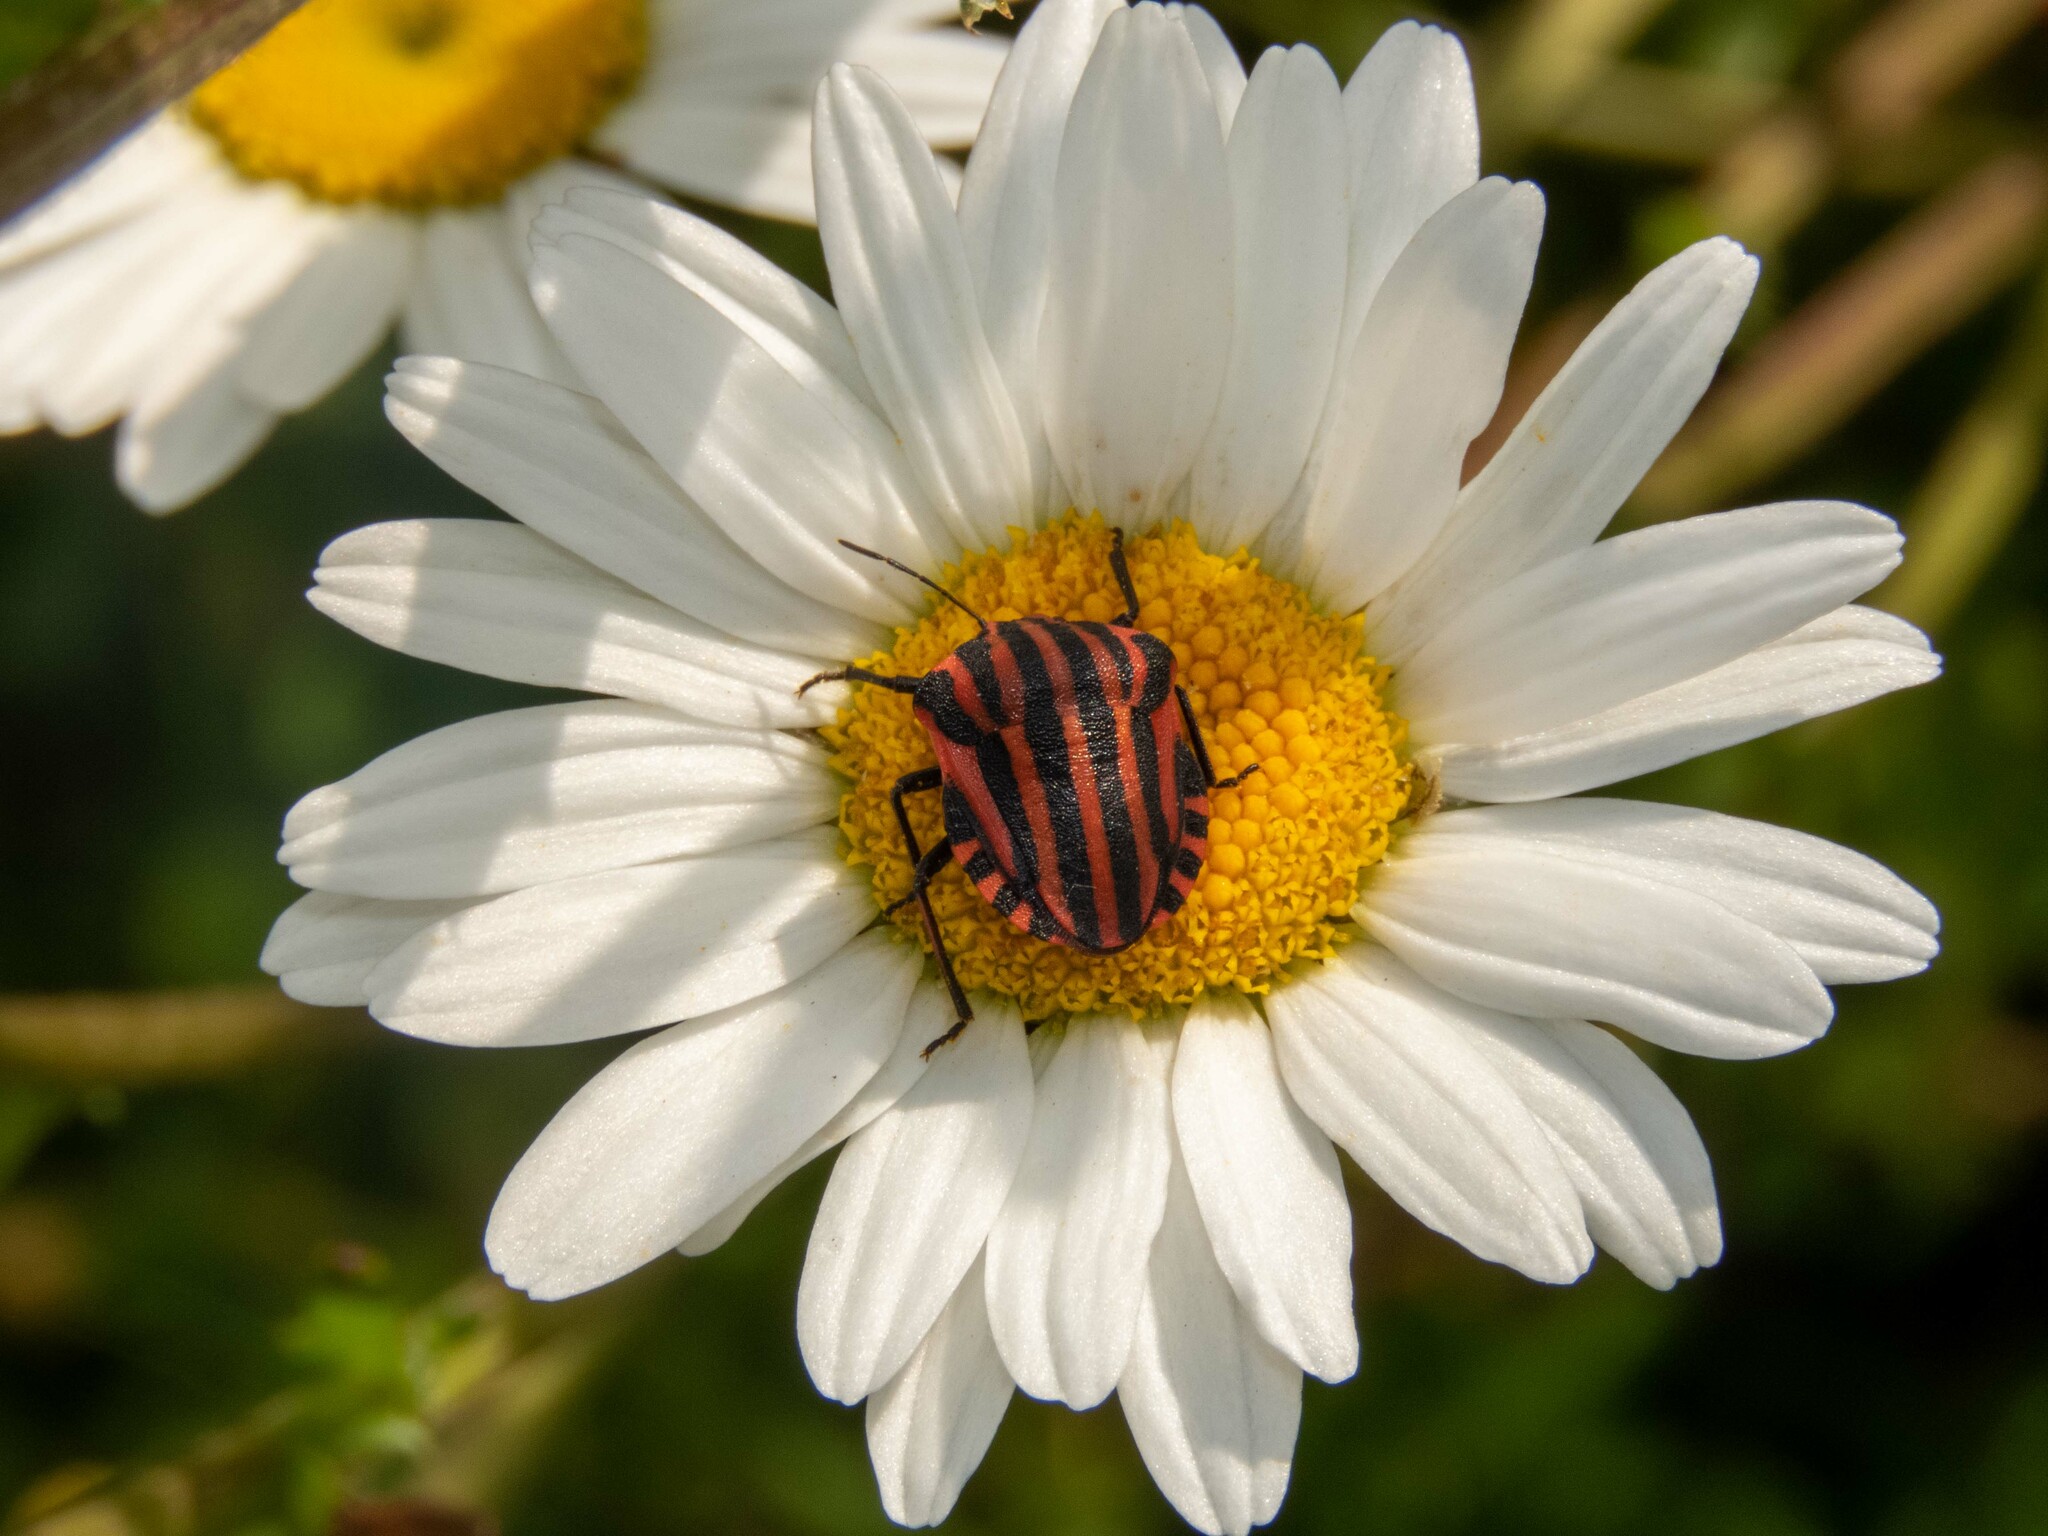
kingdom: Animalia
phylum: Arthropoda
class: Insecta
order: Hemiptera
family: Pentatomidae
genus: Graphosoma
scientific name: Graphosoma italicum
